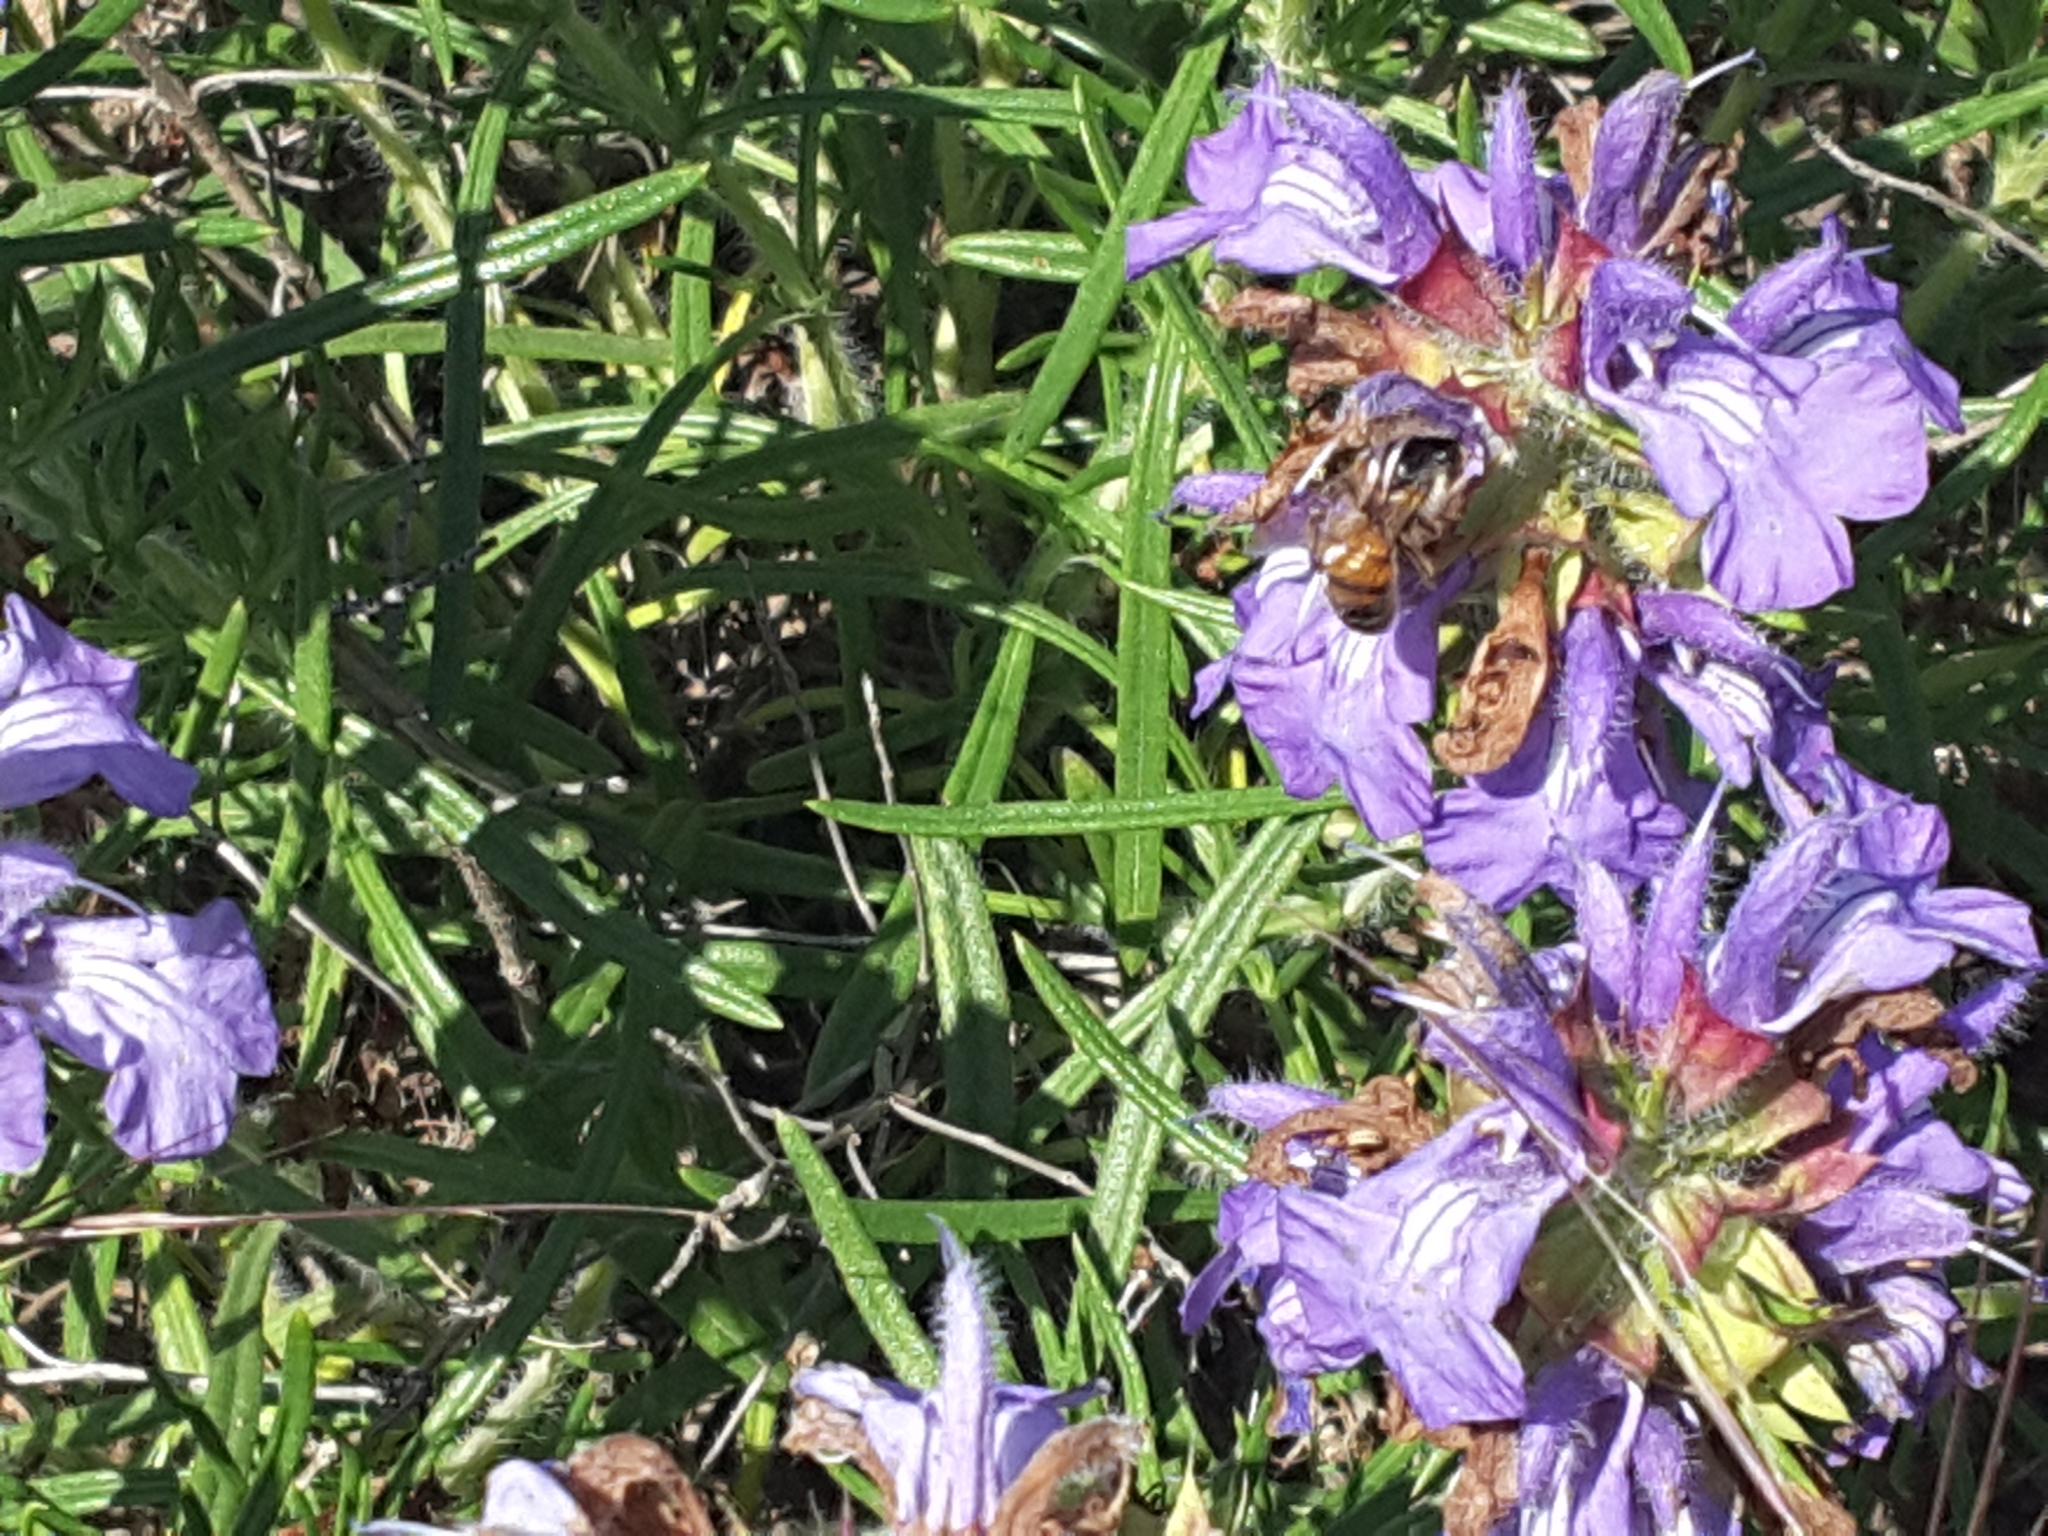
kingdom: Animalia
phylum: Arthropoda
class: Insecta
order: Hymenoptera
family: Apidae
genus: Apis
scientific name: Apis mellifera
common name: Honey bee
